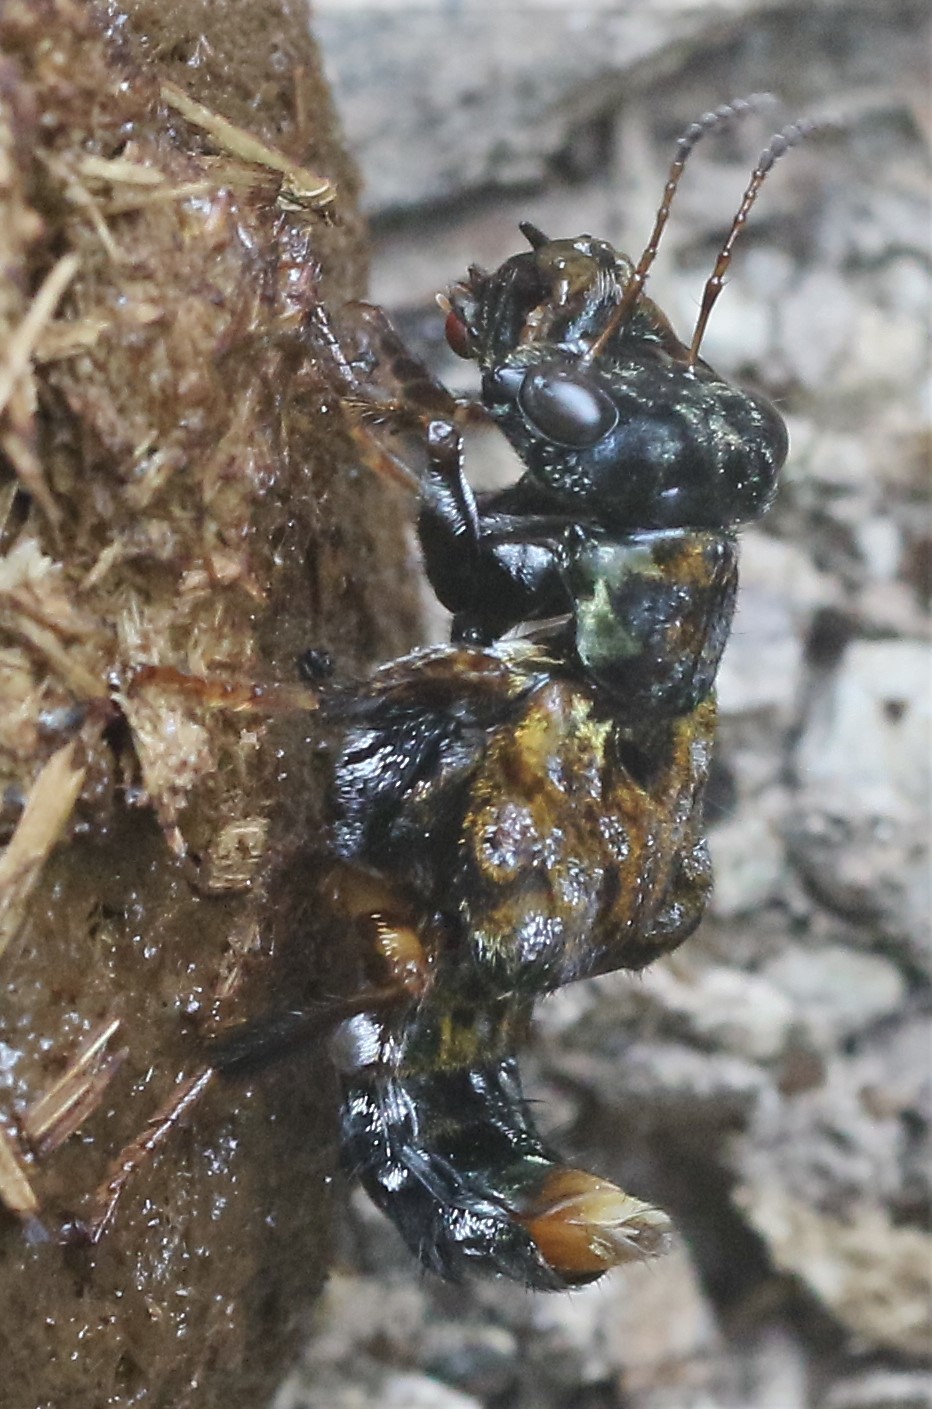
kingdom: Animalia
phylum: Arthropoda
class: Insecta
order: Coleoptera
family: Staphylinidae
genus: Leistotrophus
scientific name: Leistotrophus versicolor
